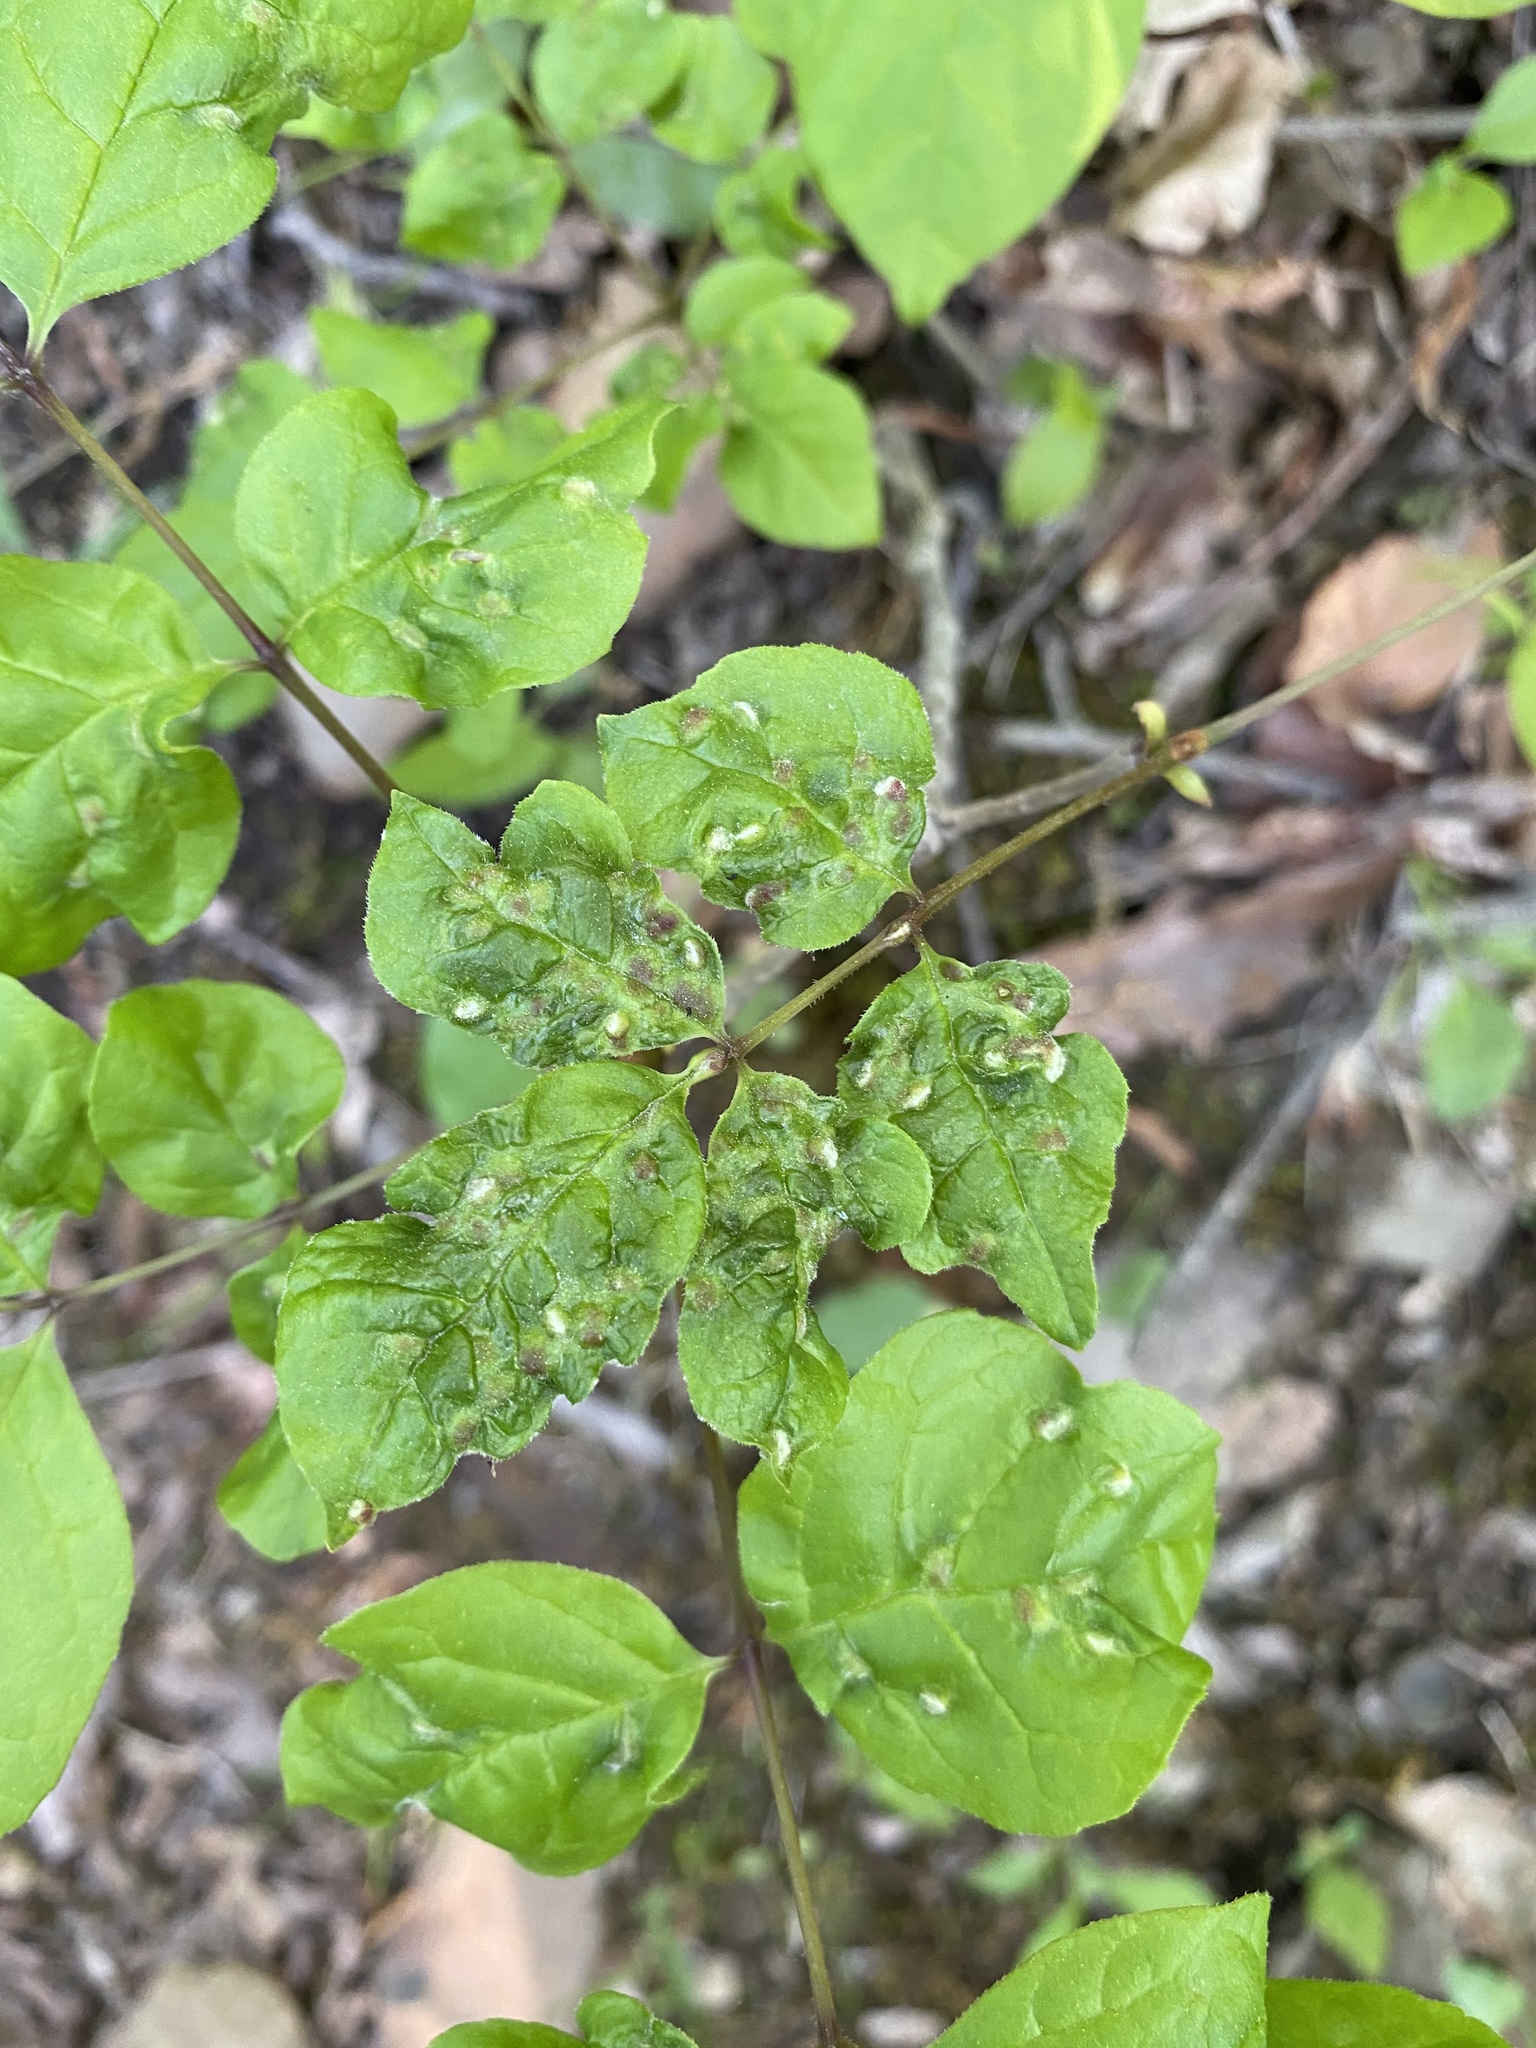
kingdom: Animalia
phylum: Arthropoda
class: Arachnida
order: Trombidiformes
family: Eriophyidae
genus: Aceria
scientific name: Aceria fraxinicola
